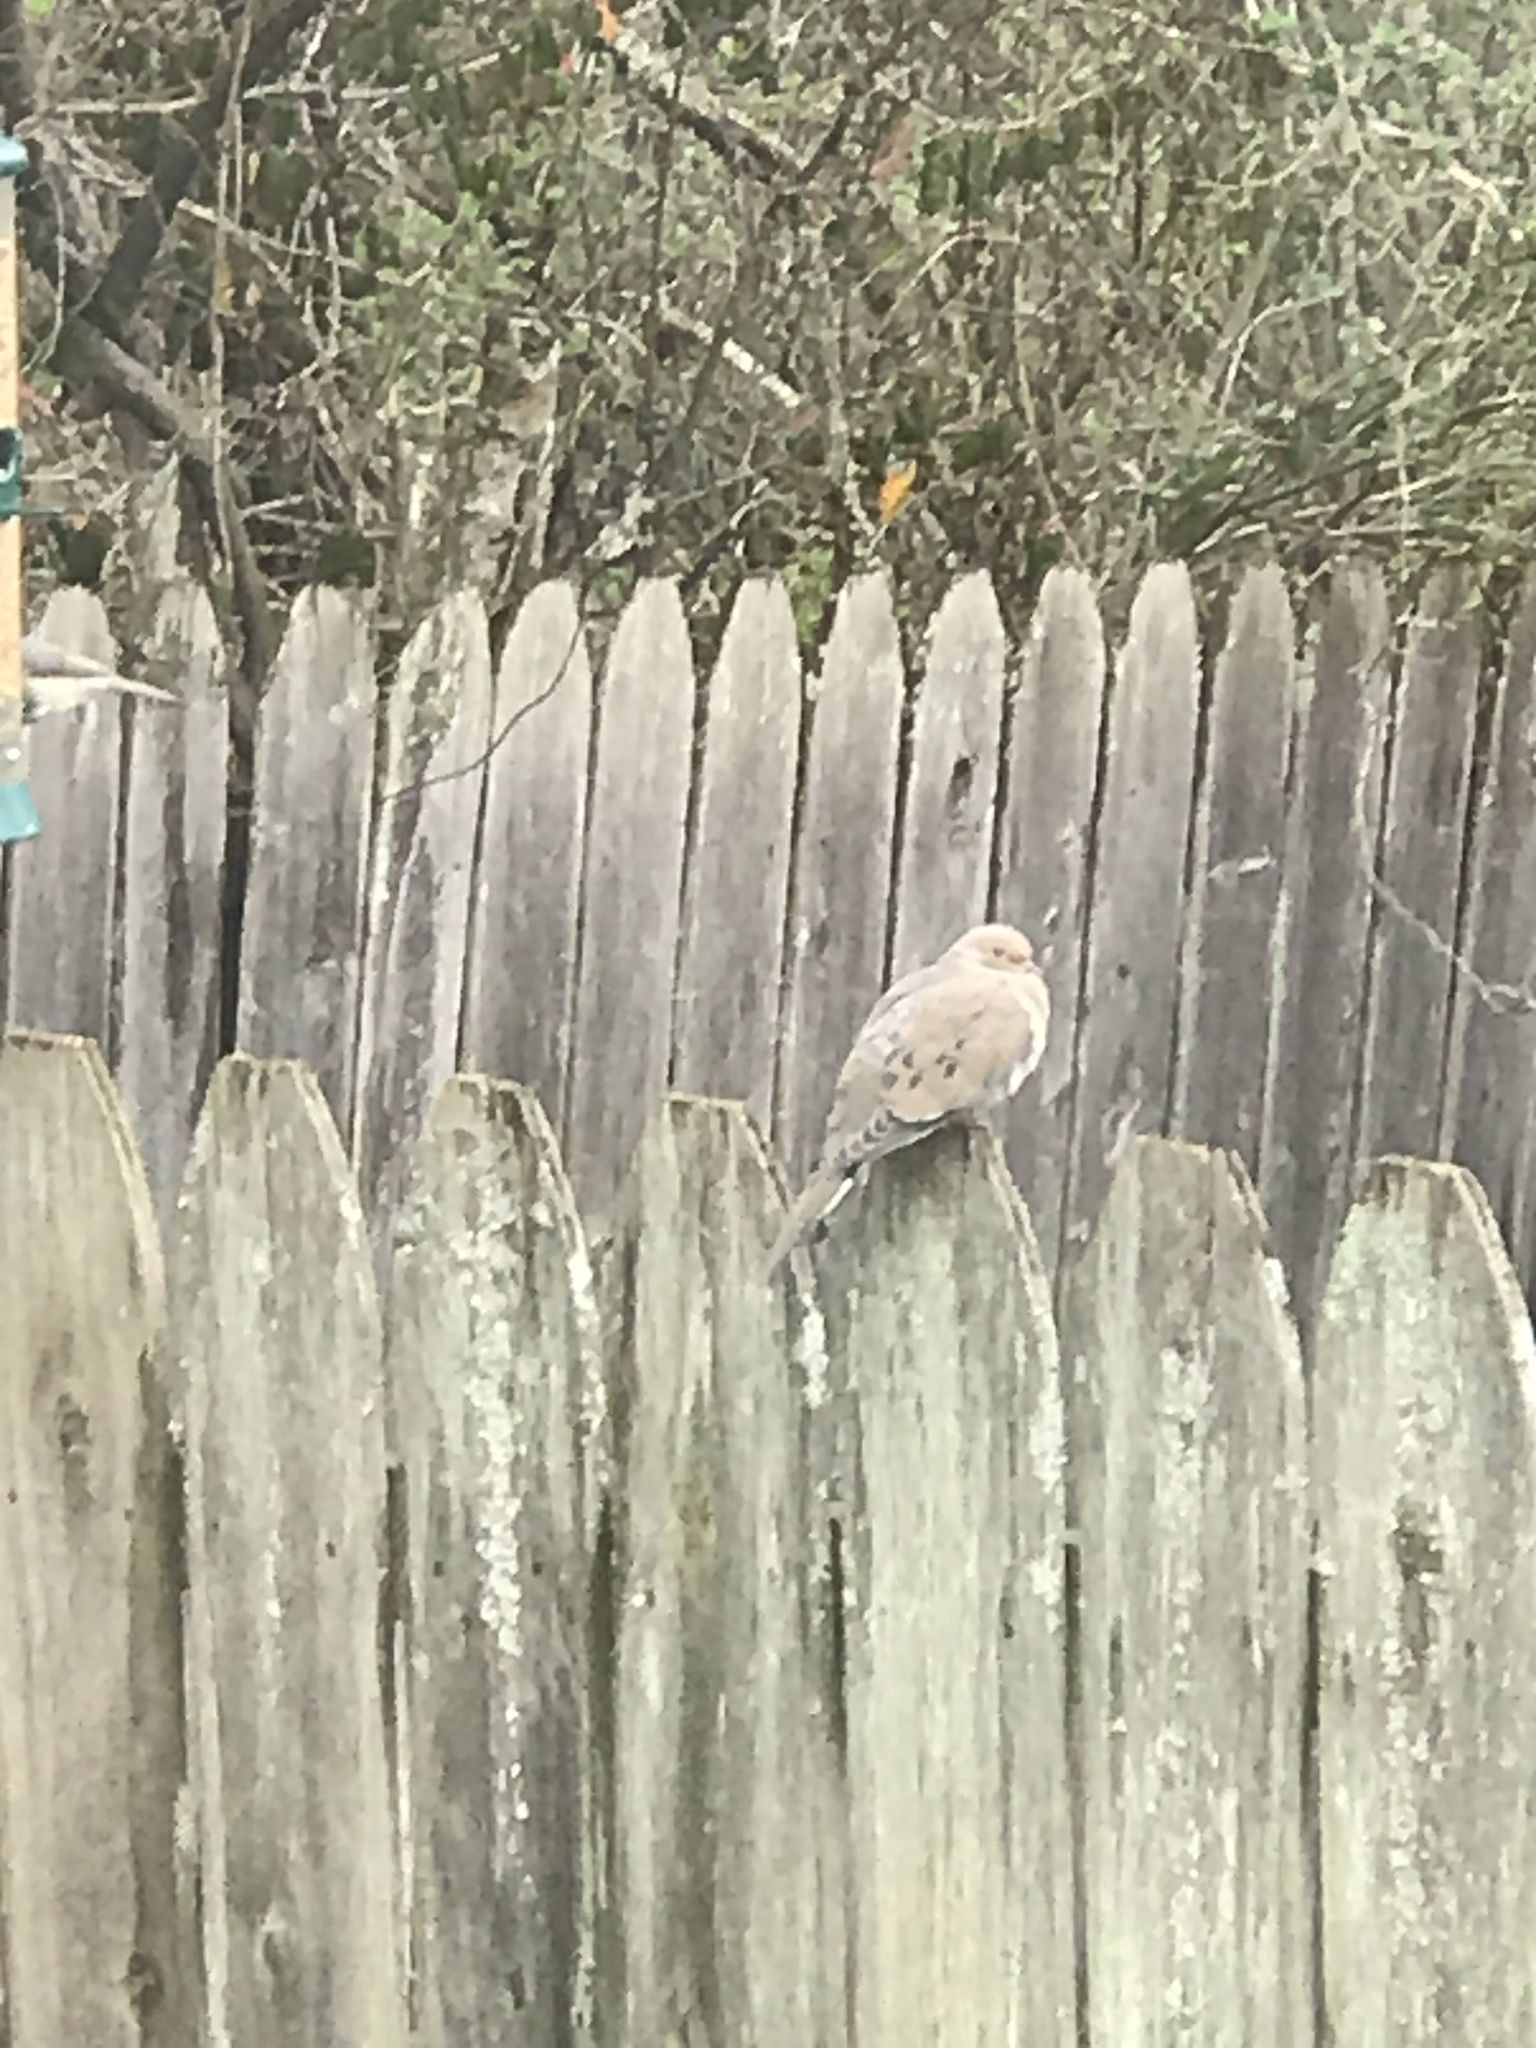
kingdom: Animalia
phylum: Chordata
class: Aves
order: Columbiformes
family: Columbidae
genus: Zenaida
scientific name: Zenaida macroura
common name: Mourning dove
